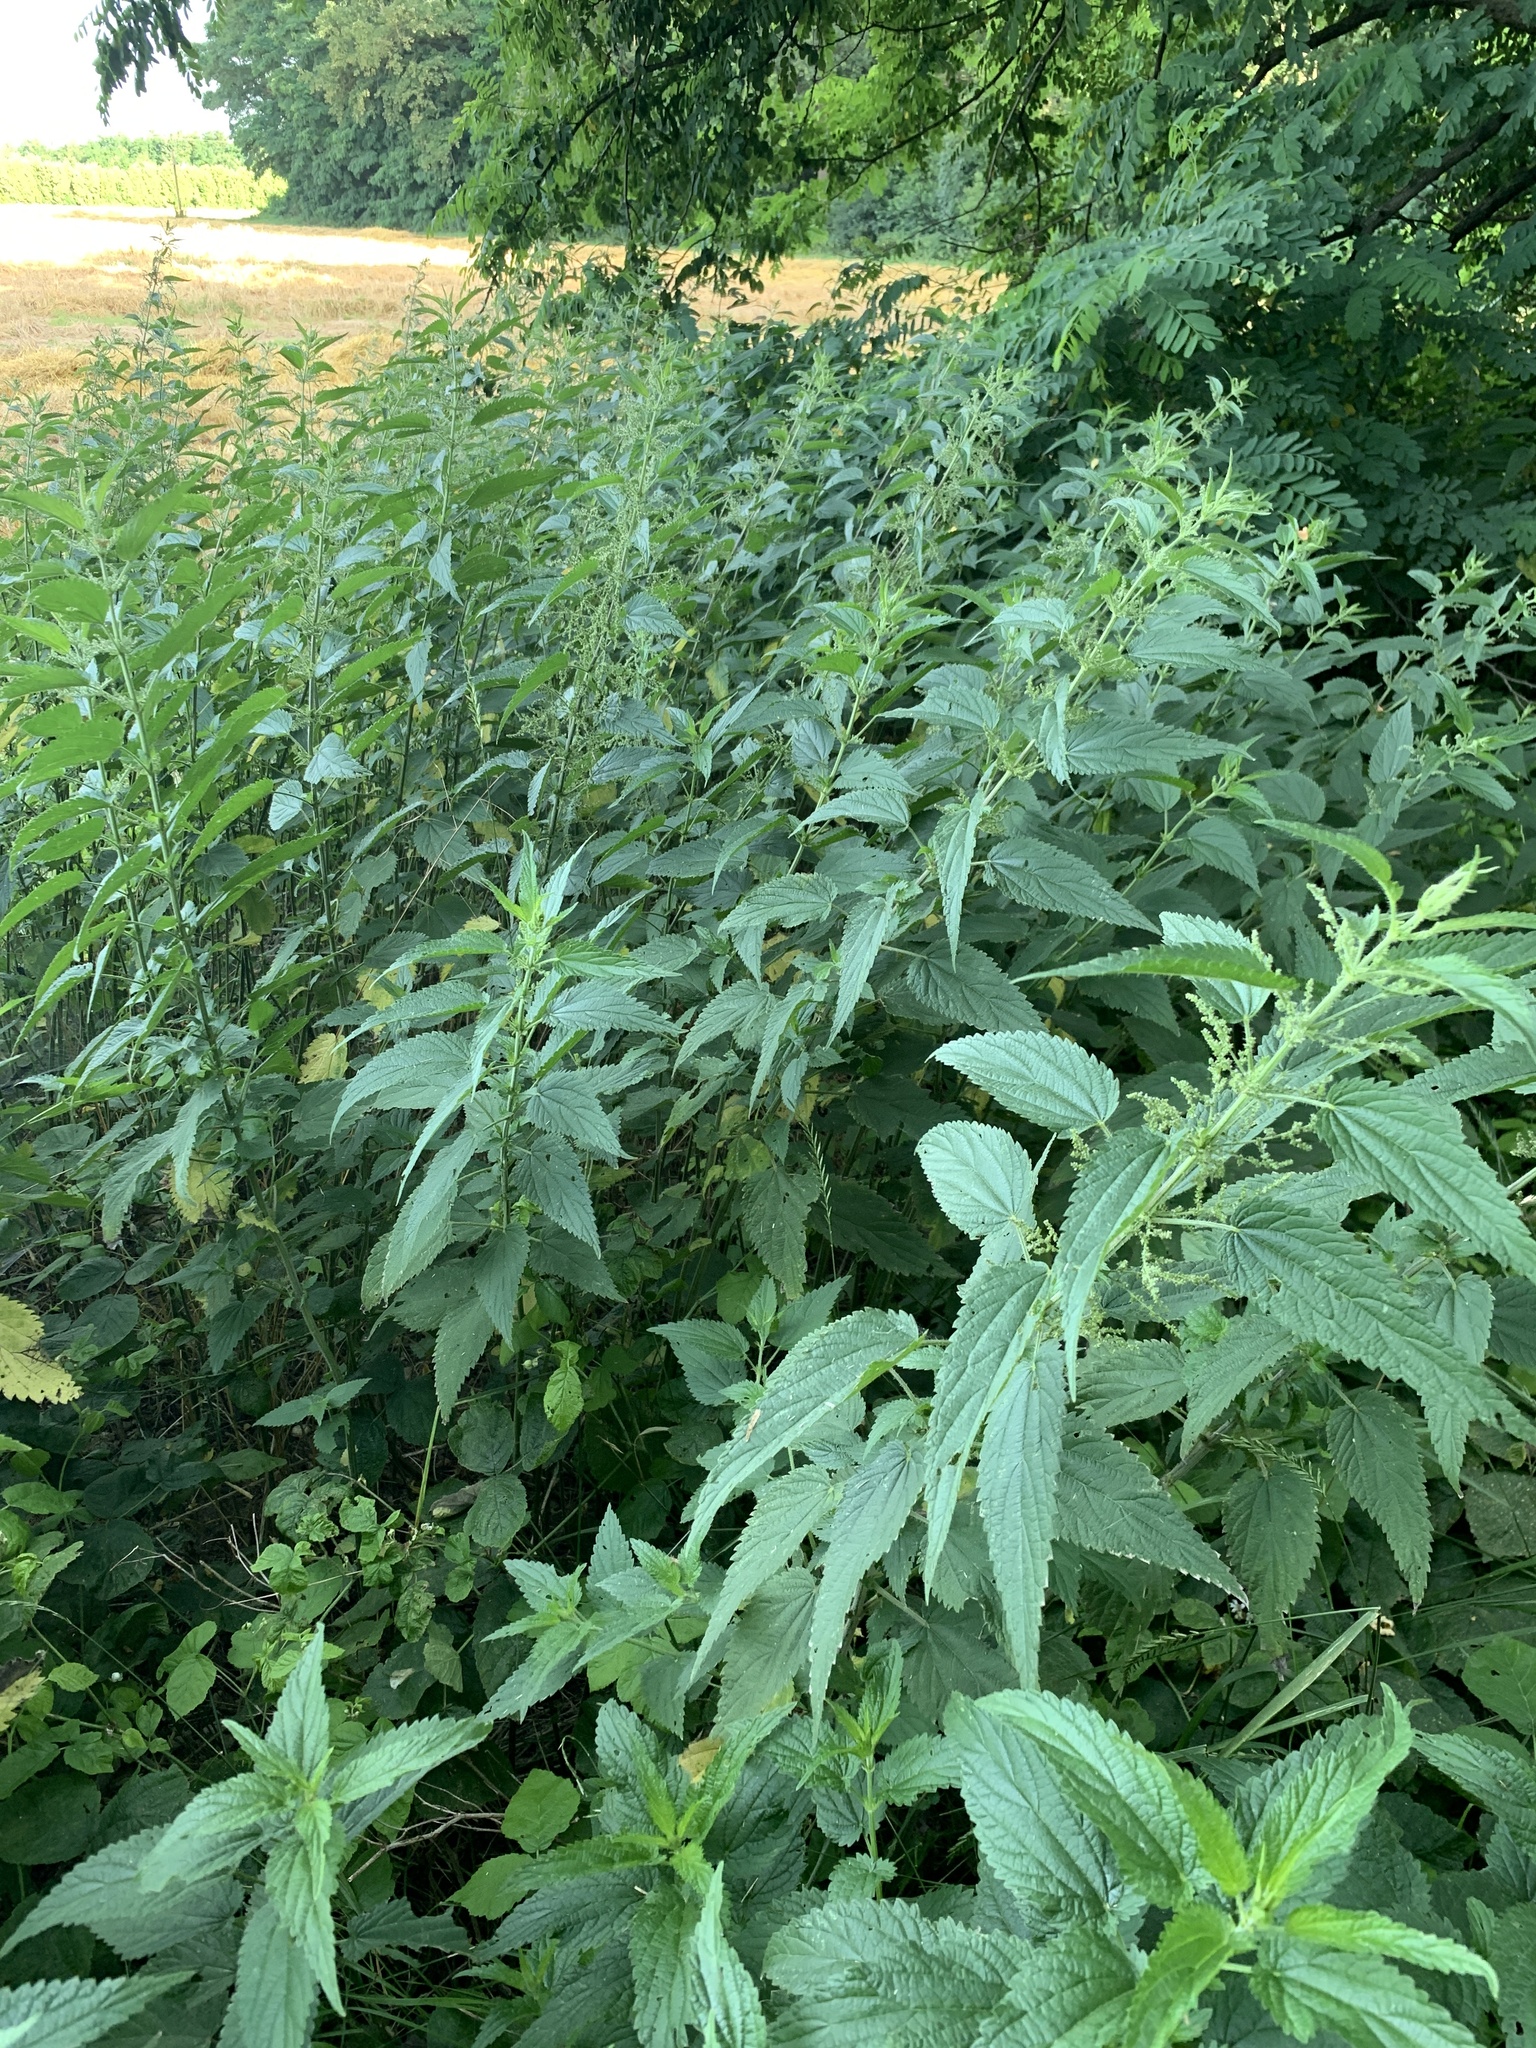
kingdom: Plantae
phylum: Tracheophyta
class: Magnoliopsida
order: Rosales
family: Urticaceae
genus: Urtica
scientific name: Urtica dioica
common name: Common nettle
